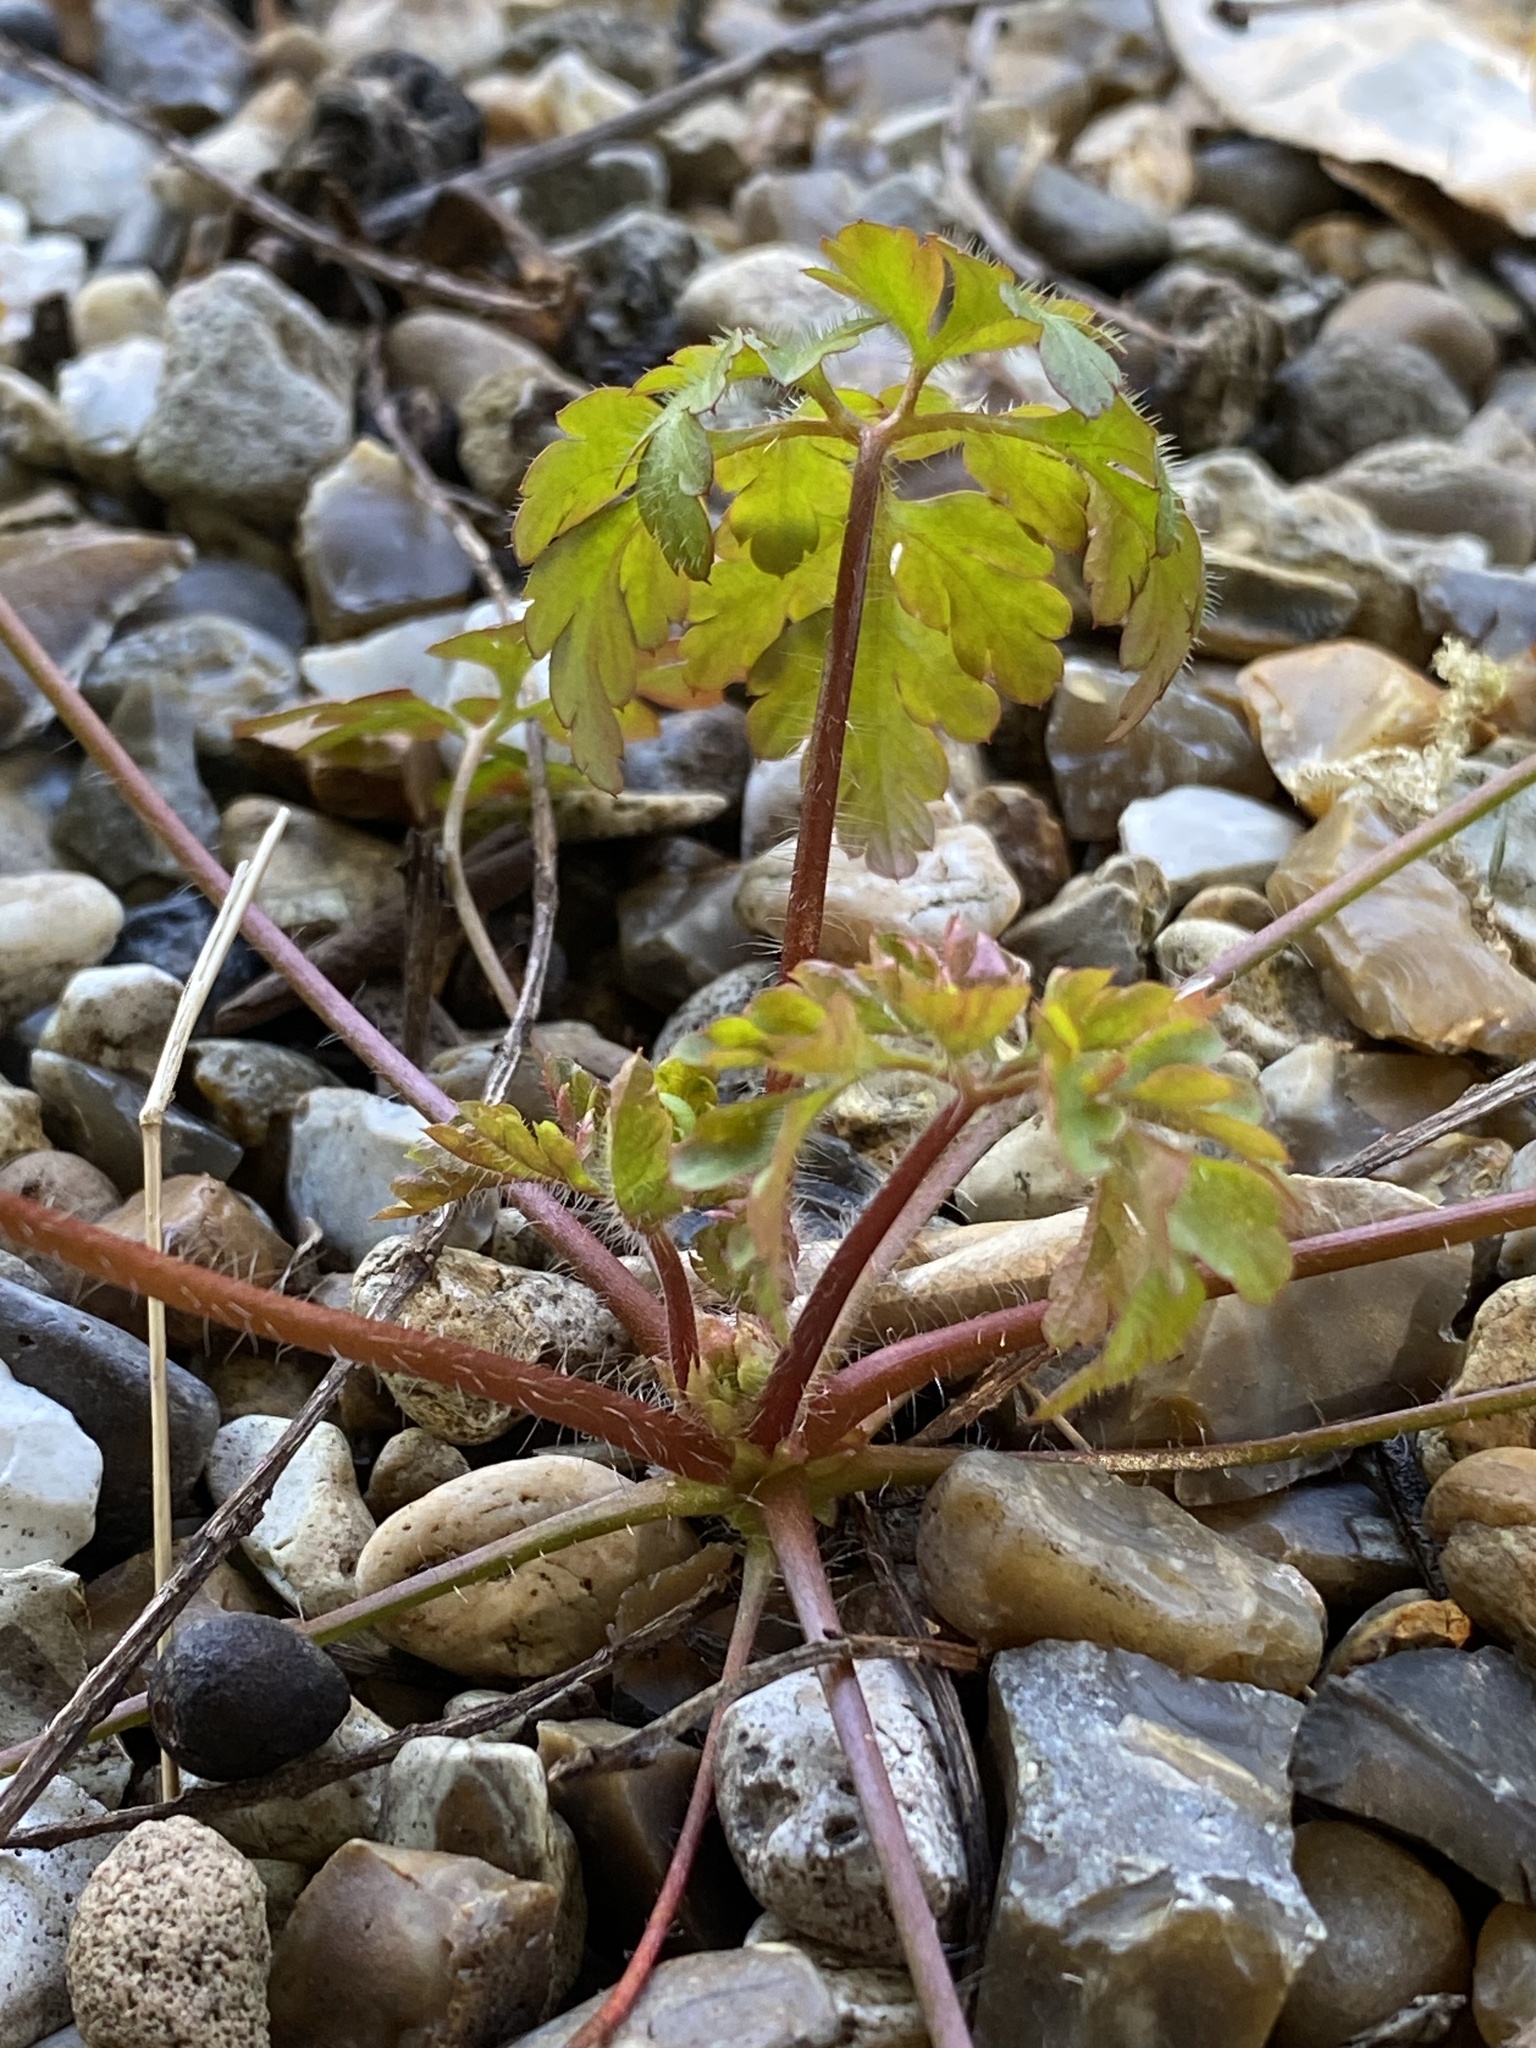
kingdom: Plantae
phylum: Tracheophyta
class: Magnoliopsida
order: Geraniales
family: Geraniaceae
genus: Geranium
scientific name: Geranium robertianum
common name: Herb-robert
